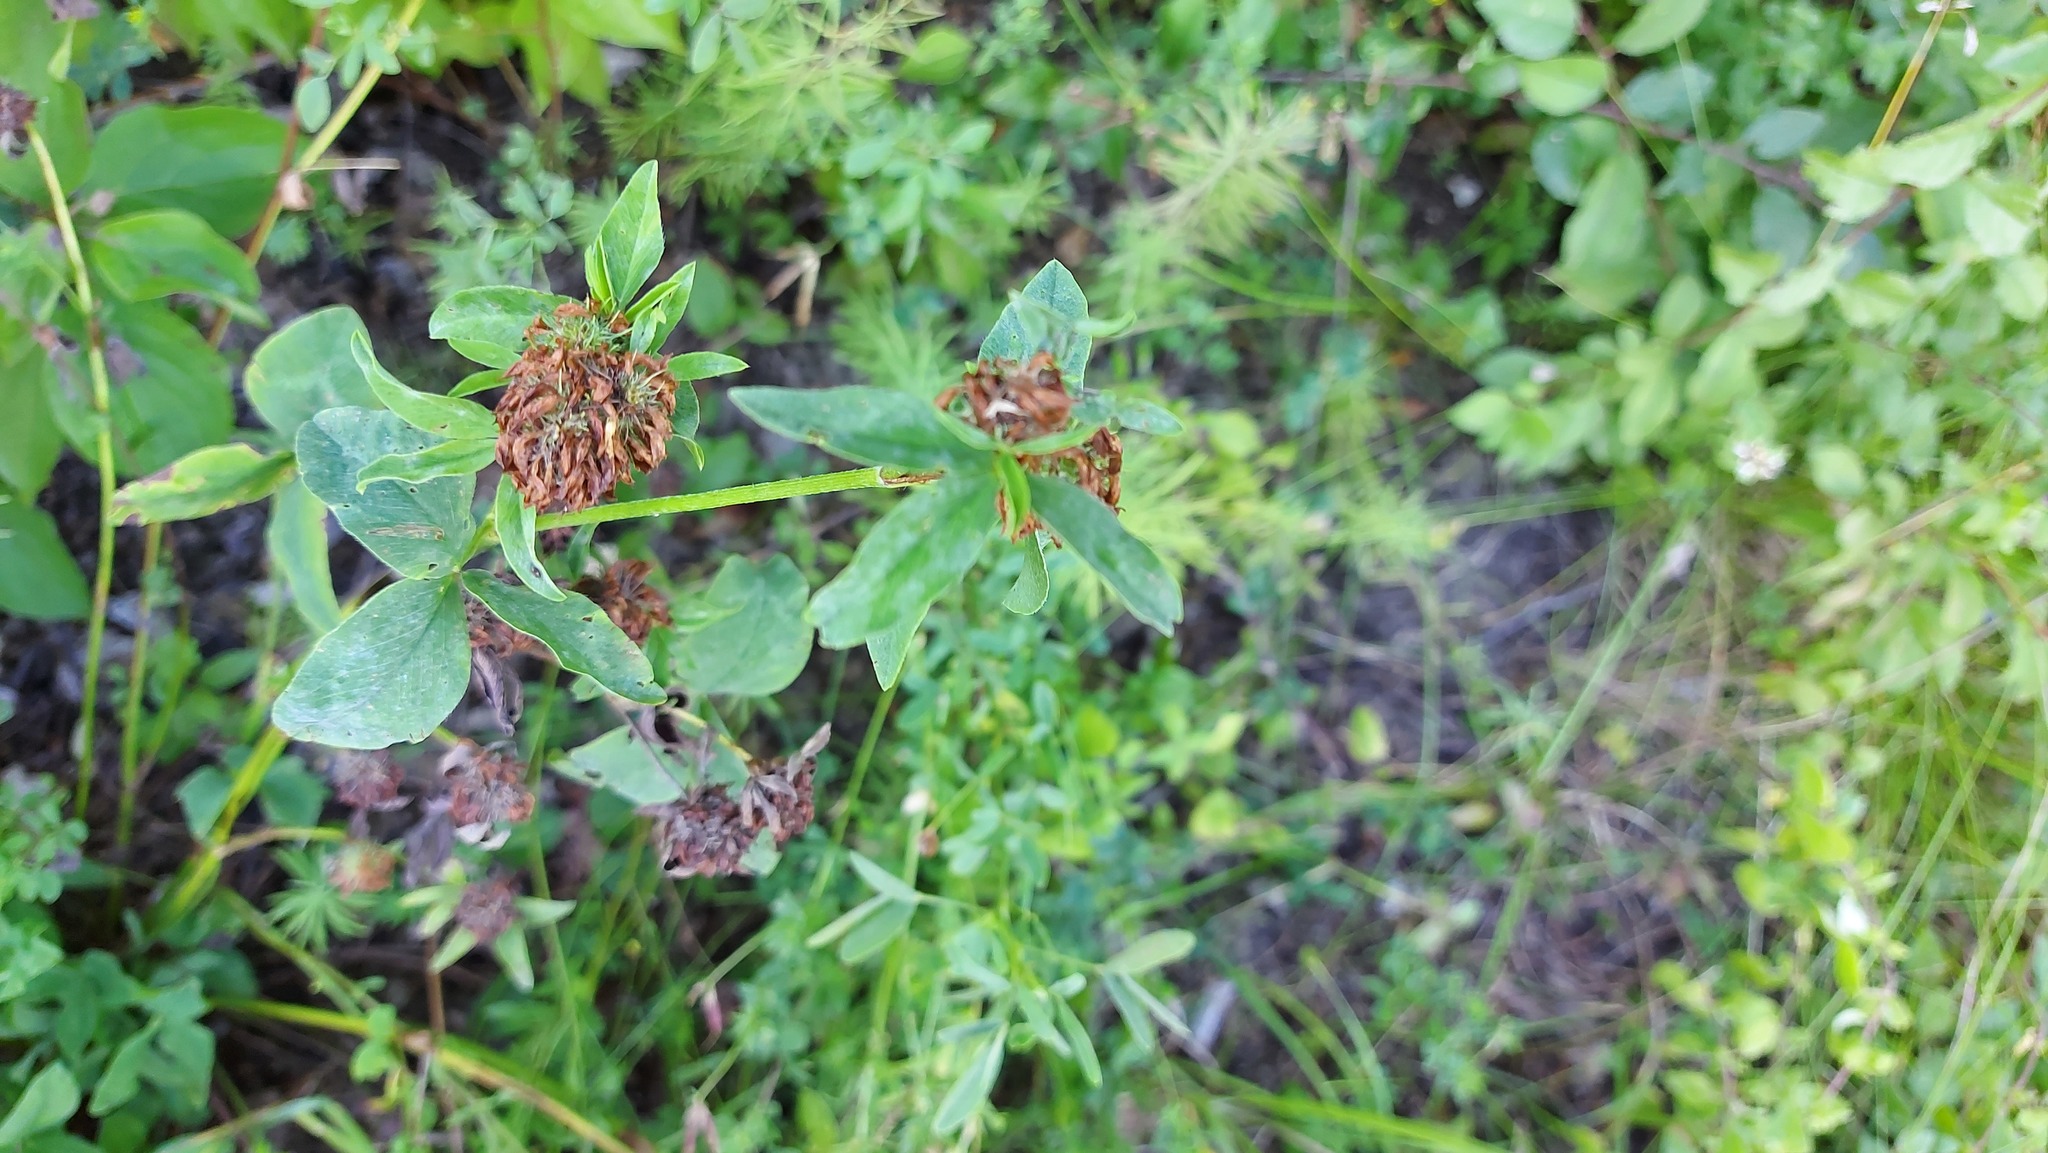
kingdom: Plantae
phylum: Tracheophyta
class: Magnoliopsida
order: Fabales
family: Fabaceae
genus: Trifolium
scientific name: Trifolium pratense
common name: Red clover
